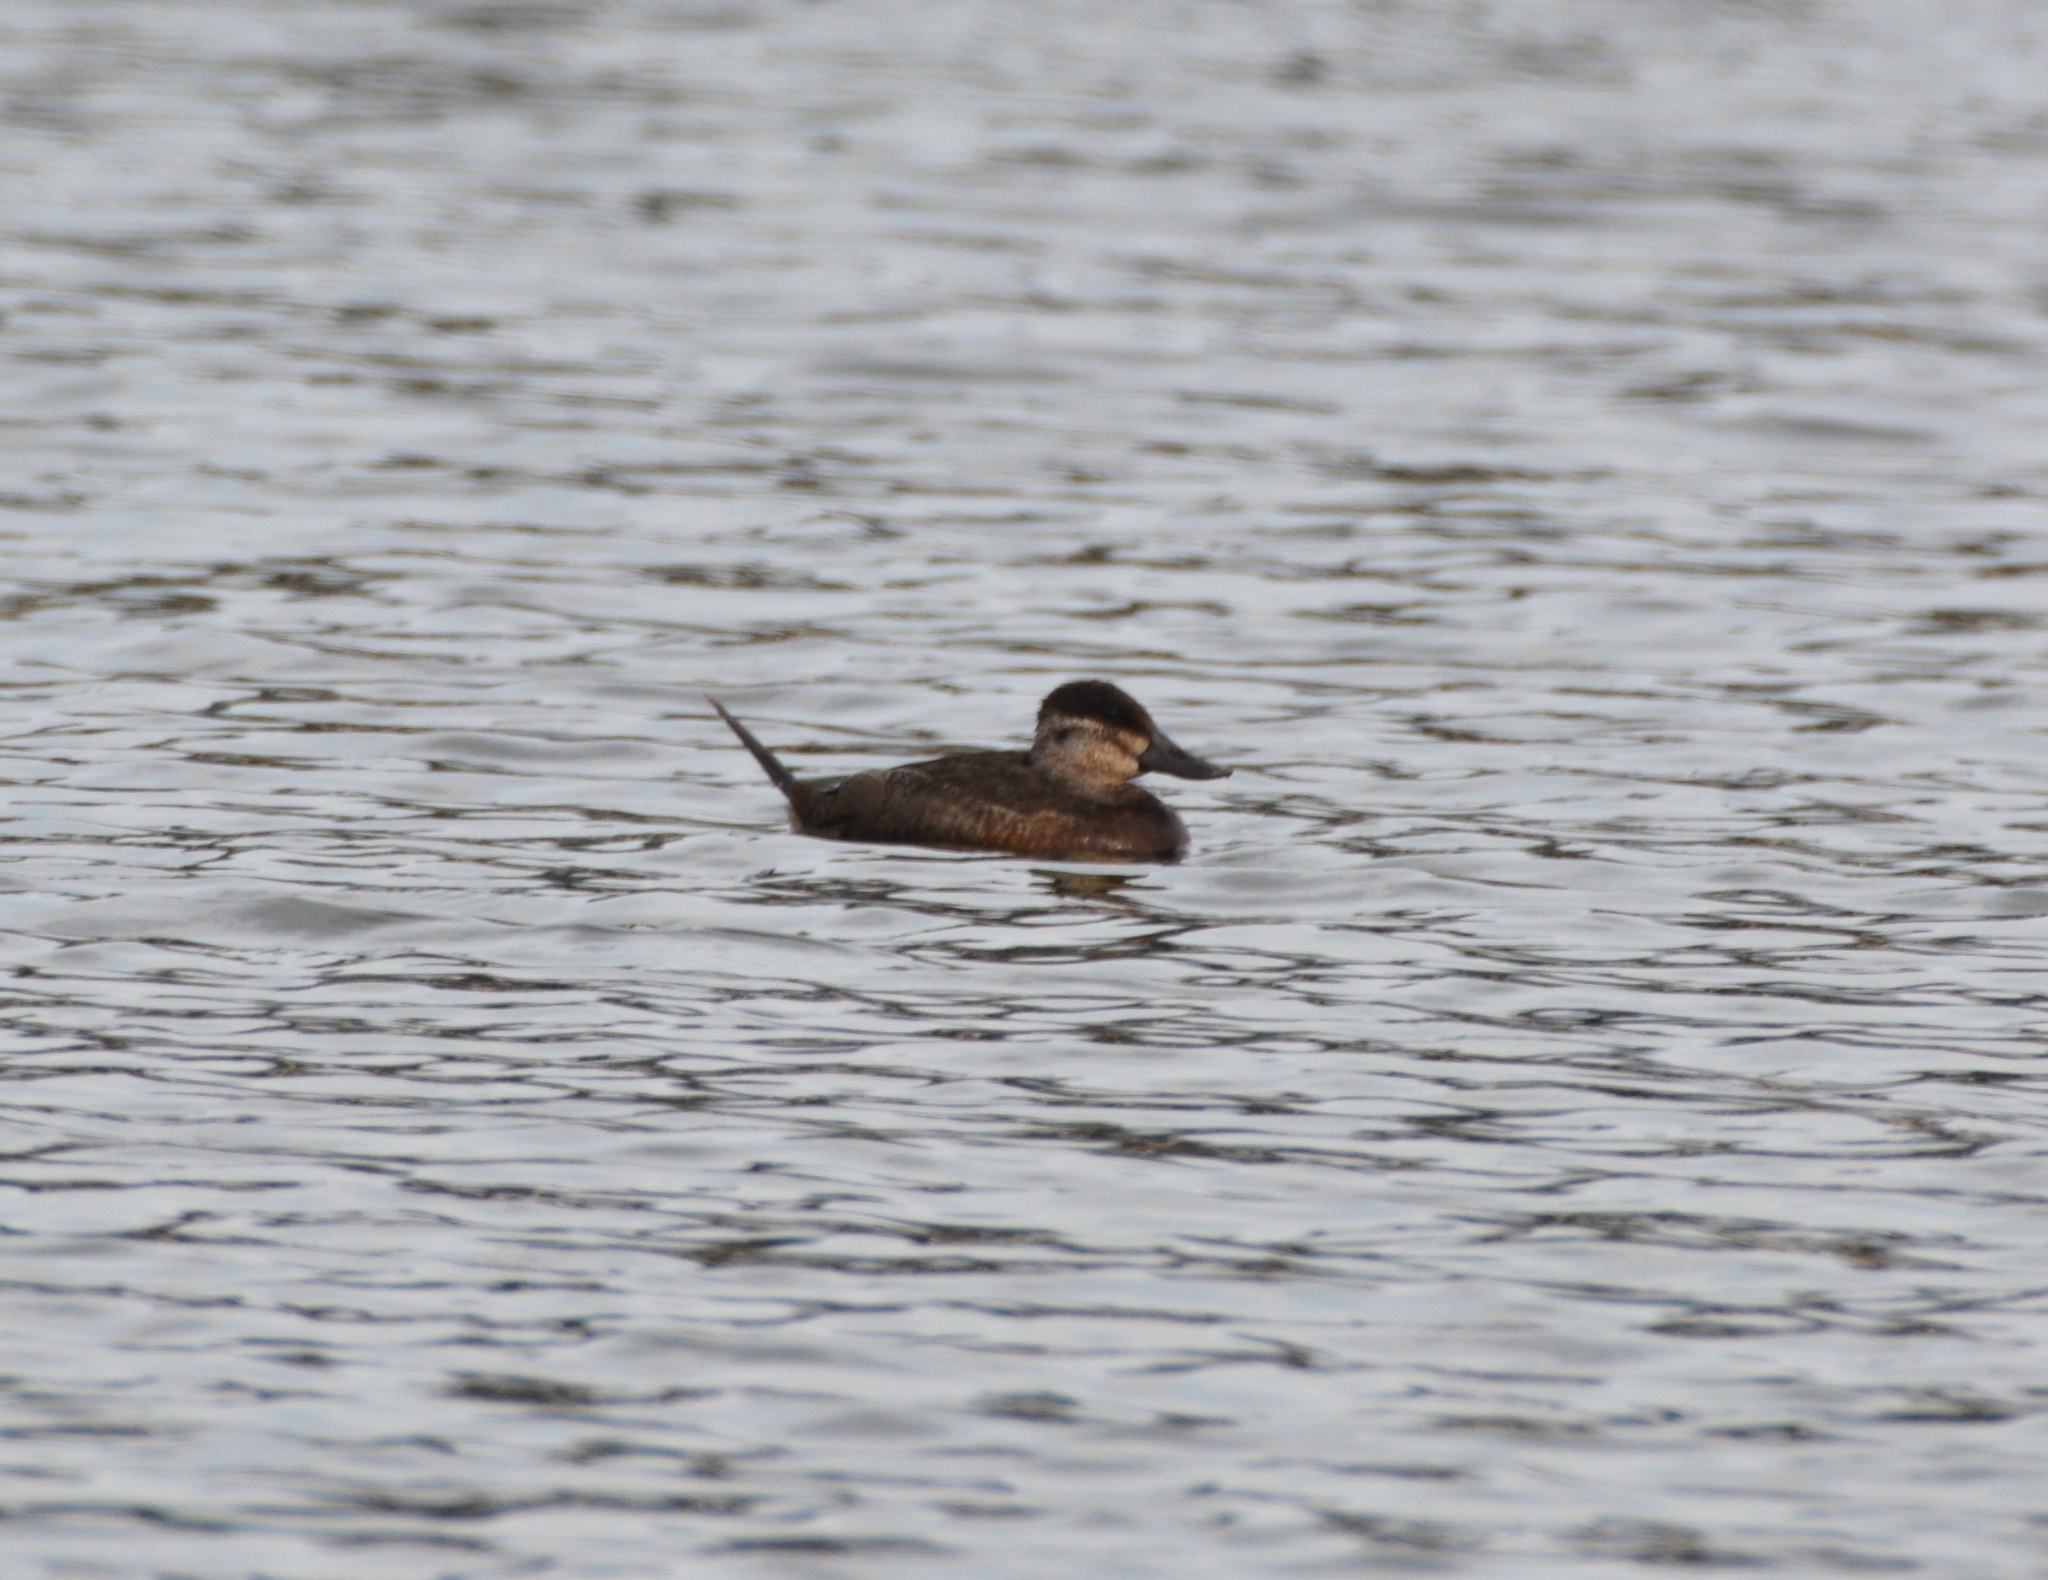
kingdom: Animalia
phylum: Chordata
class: Aves
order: Anseriformes
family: Anatidae
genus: Oxyura
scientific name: Oxyura jamaicensis
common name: Ruddy duck
